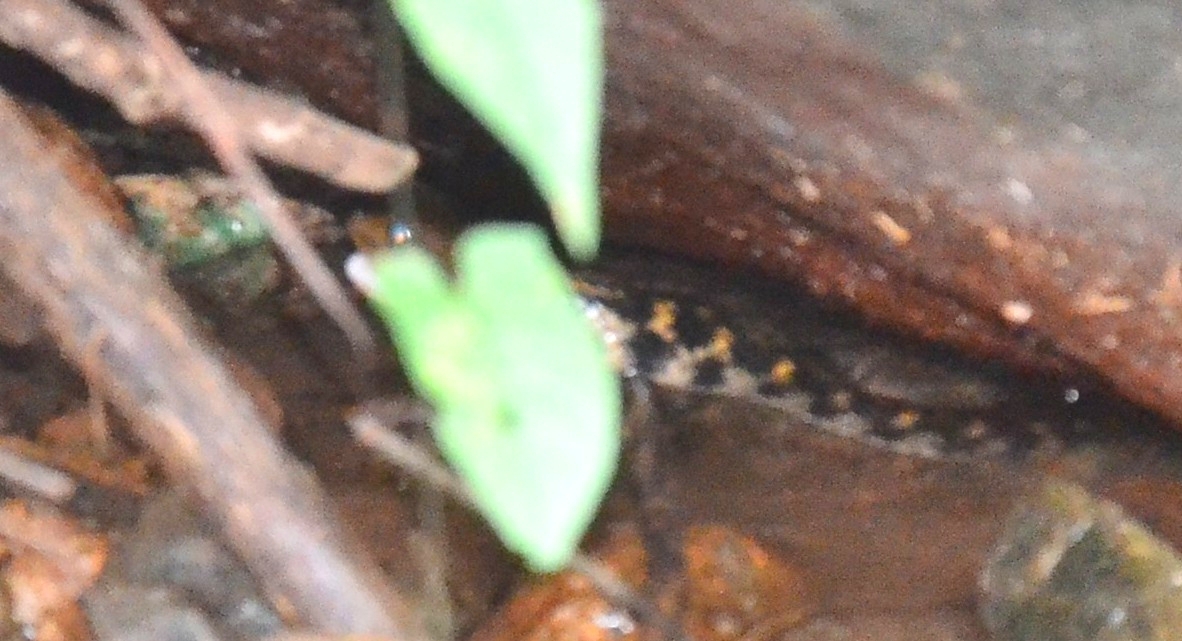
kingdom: Animalia
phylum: Chordata
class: Squamata
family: Colubridae
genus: Fowlea
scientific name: Fowlea piscator
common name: Asiatic water snake
